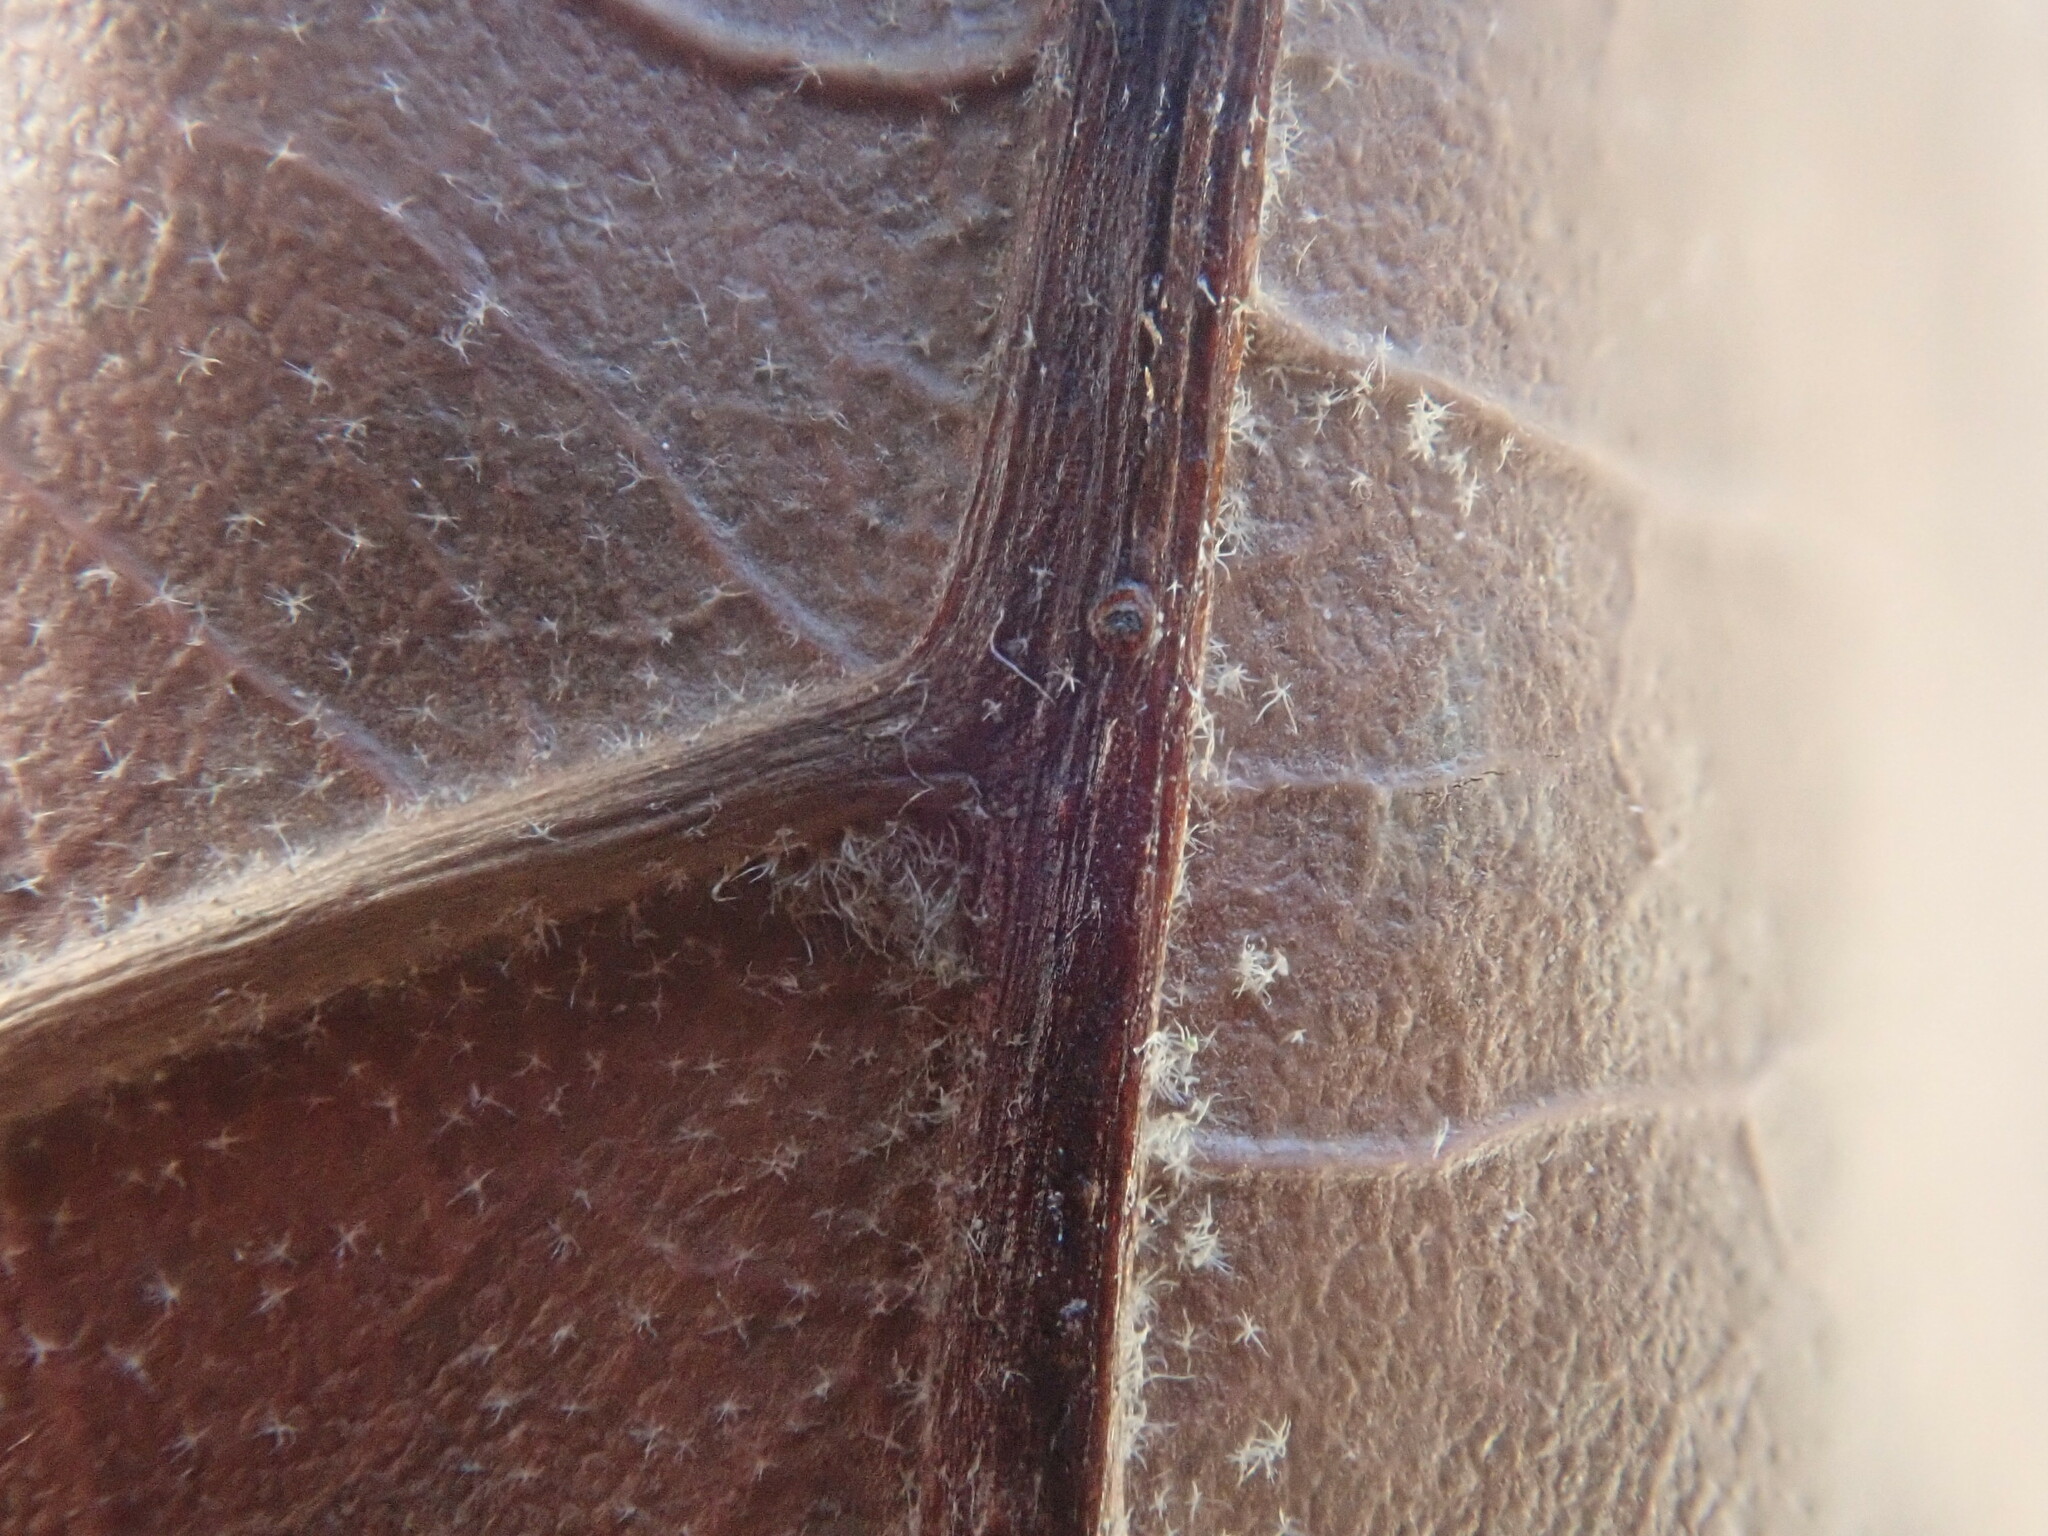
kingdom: Plantae
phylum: Tracheophyta
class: Magnoliopsida
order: Fagales
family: Fagaceae
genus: Quercus
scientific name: Quercus velutina
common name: Black oak
